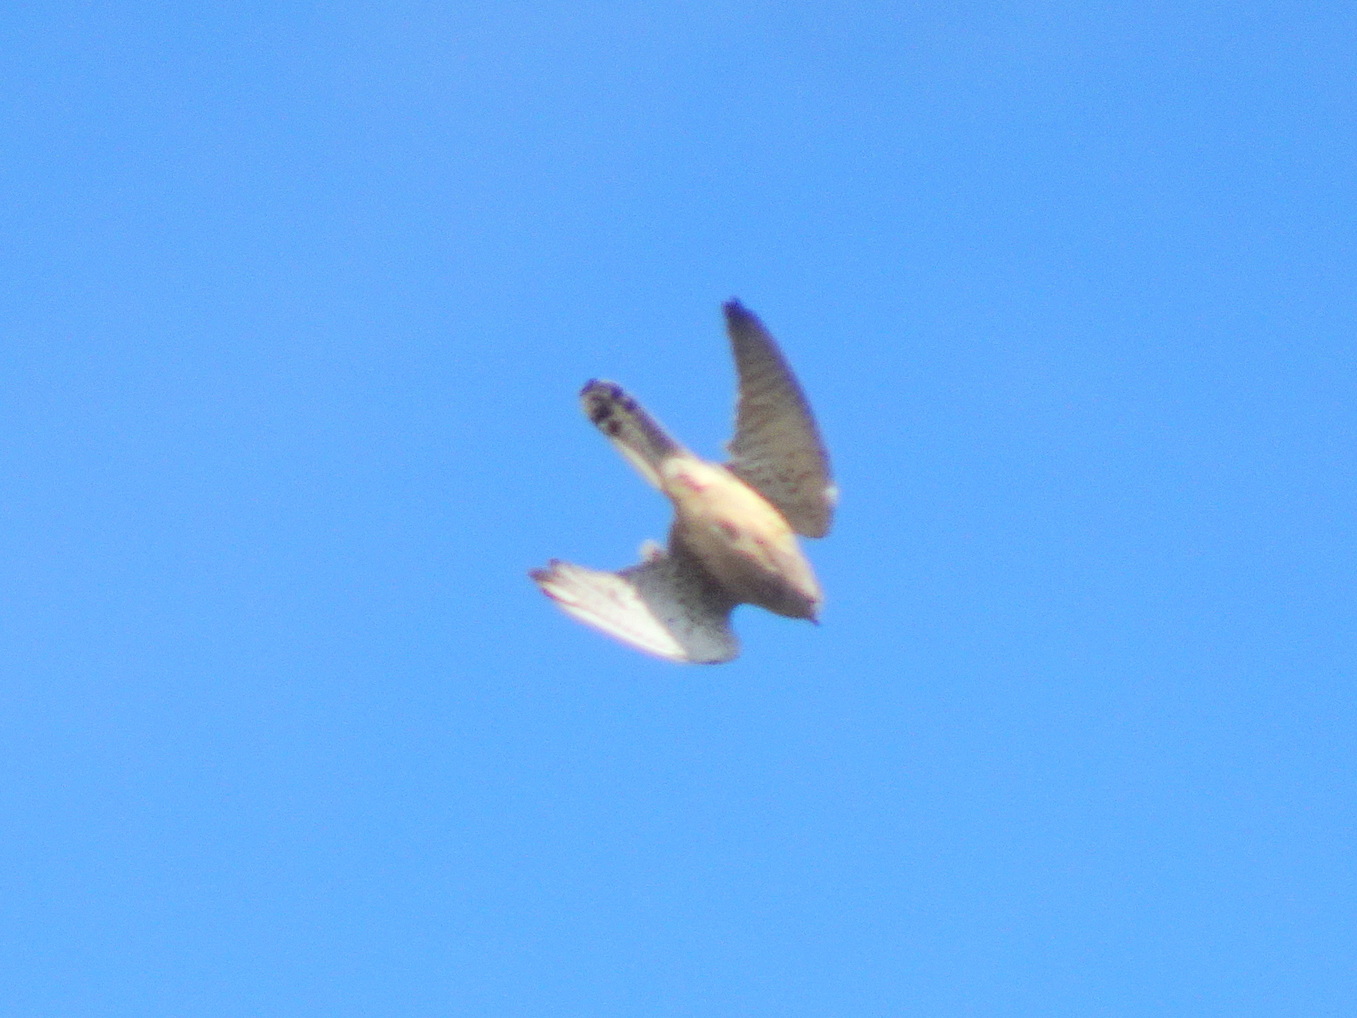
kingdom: Animalia
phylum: Chordata
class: Aves
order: Falconiformes
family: Falconidae
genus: Falco
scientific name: Falco tinnunculus
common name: Common kestrel
